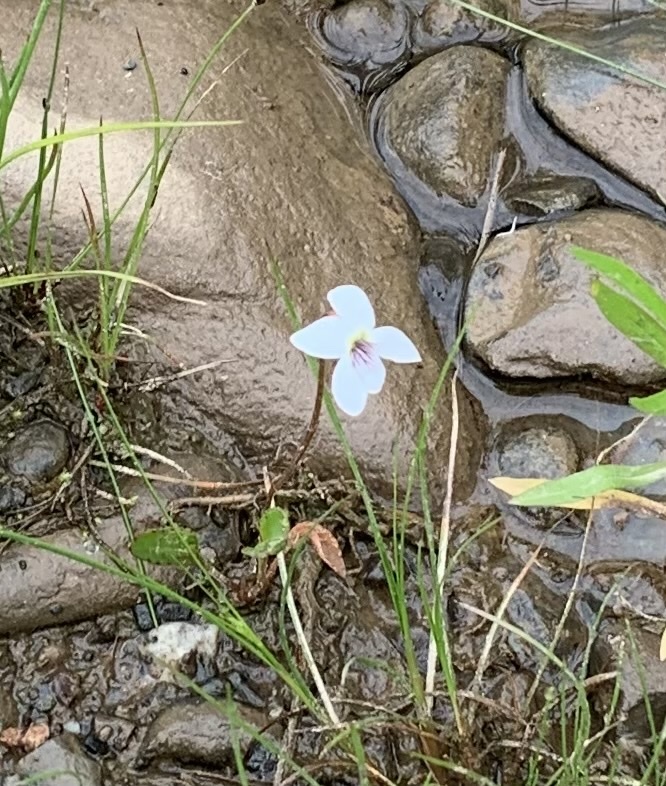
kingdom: Plantae
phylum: Tracheophyta
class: Magnoliopsida
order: Malpighiales
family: Violaceae
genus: Viola
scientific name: Viola lanceolata
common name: Bog white violet
